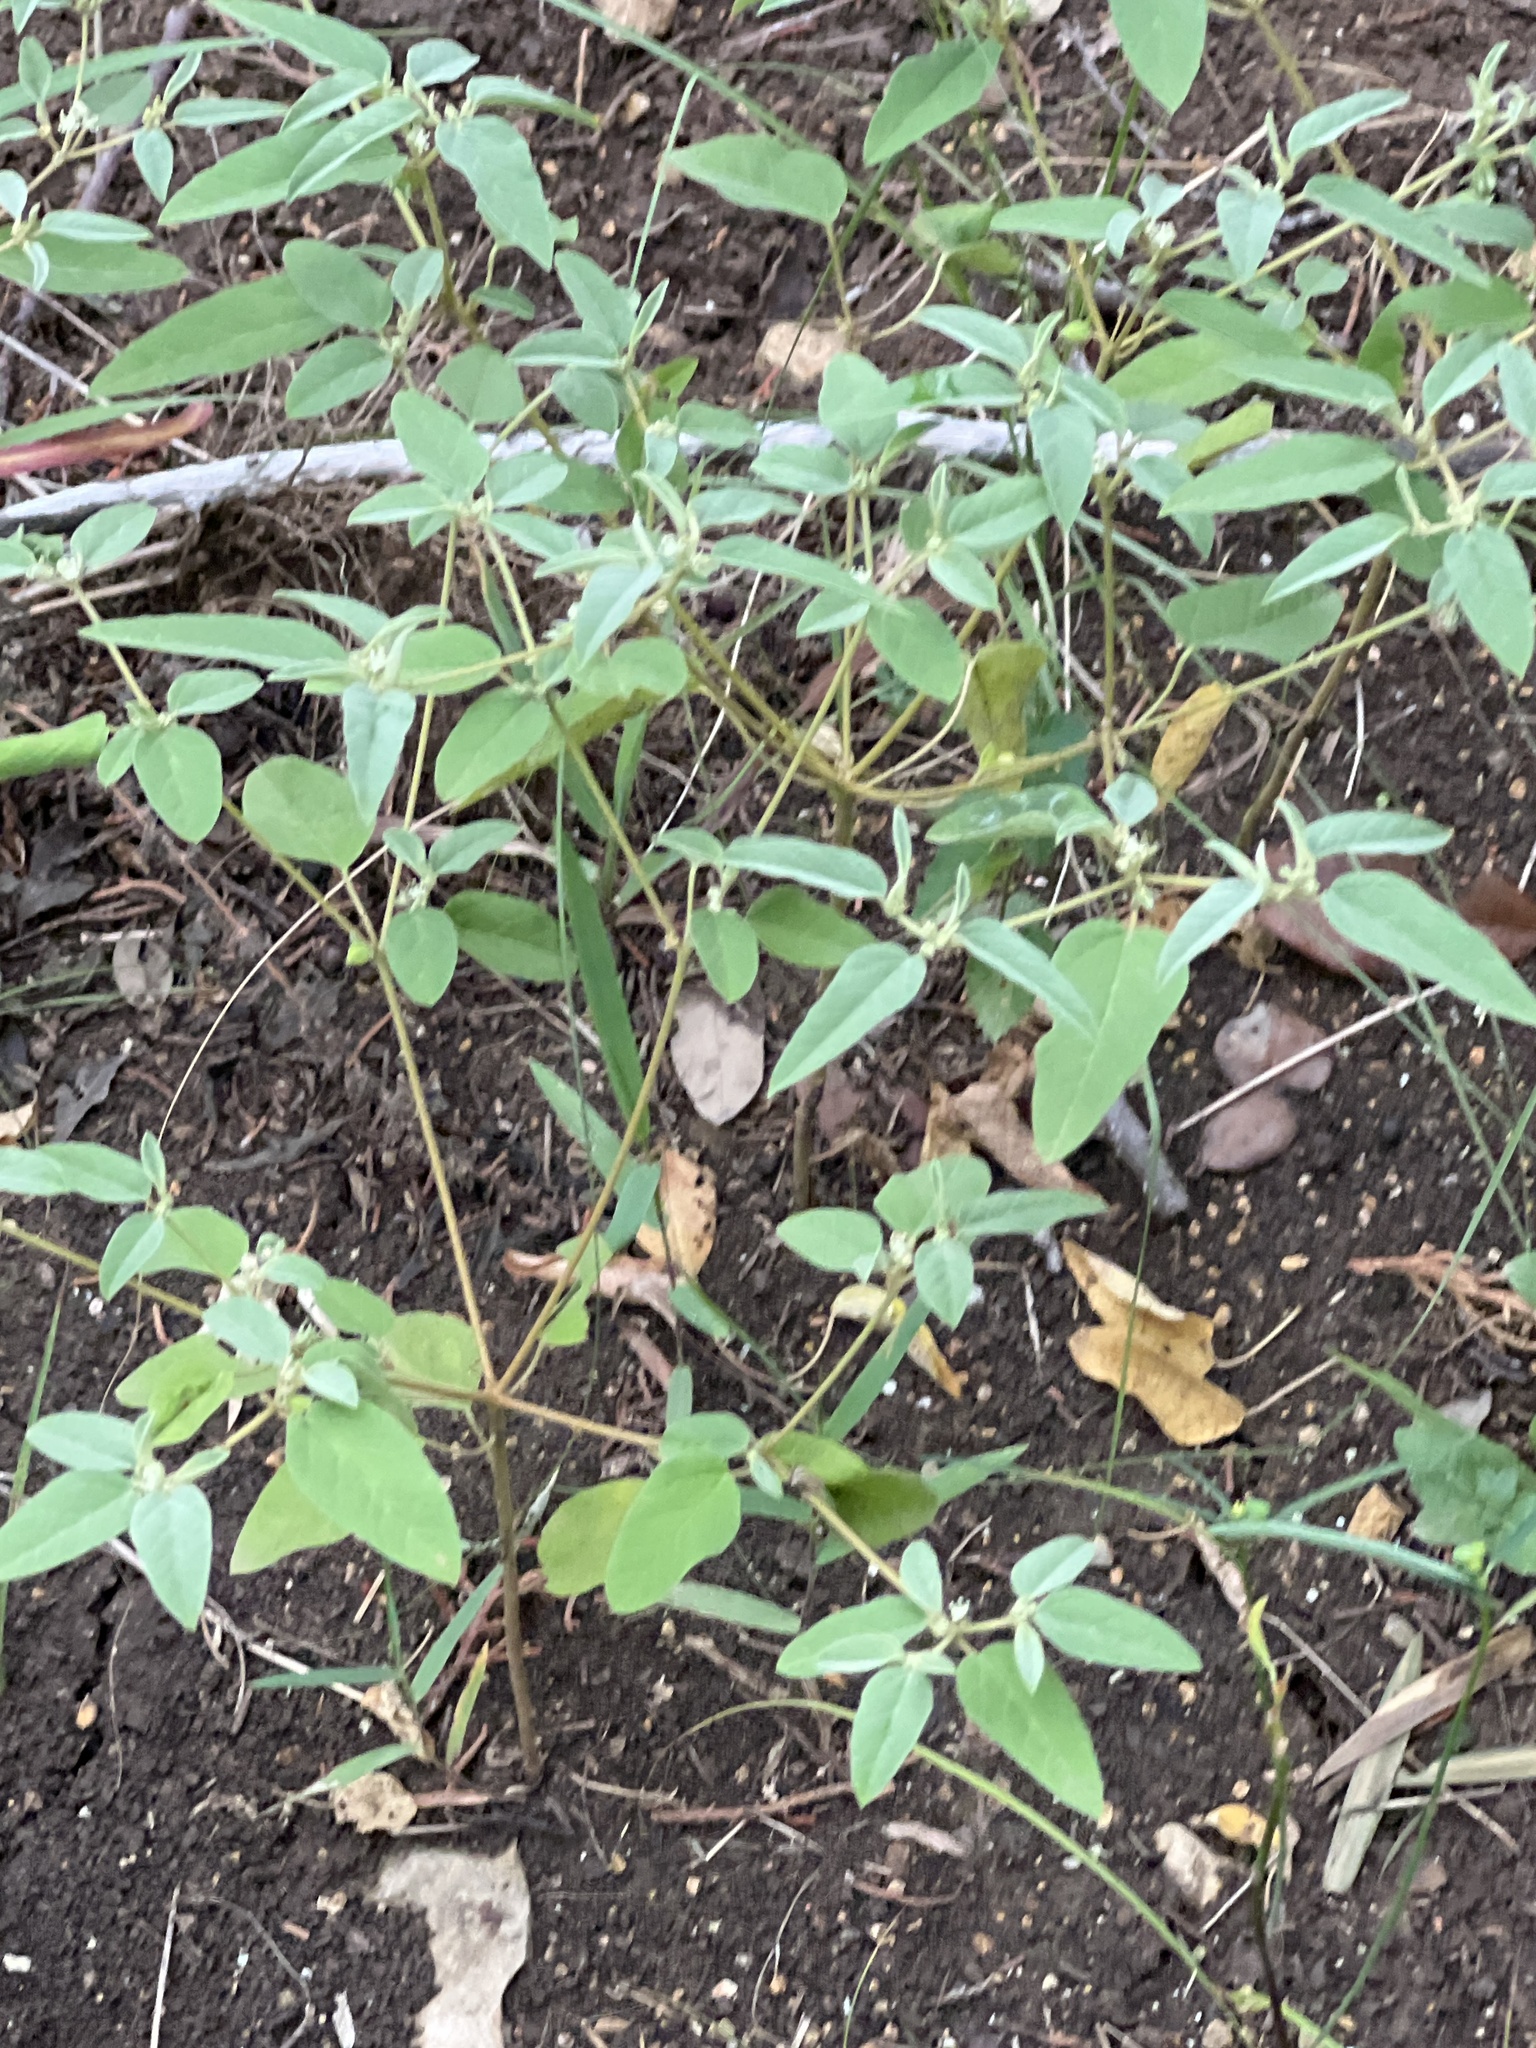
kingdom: Plantae
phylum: Tracheophyta
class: Magnoliopsida
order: Malpighiales
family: Euphorbiaceae
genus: Croton
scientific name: Croton monanthogynus
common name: One-seed croton
